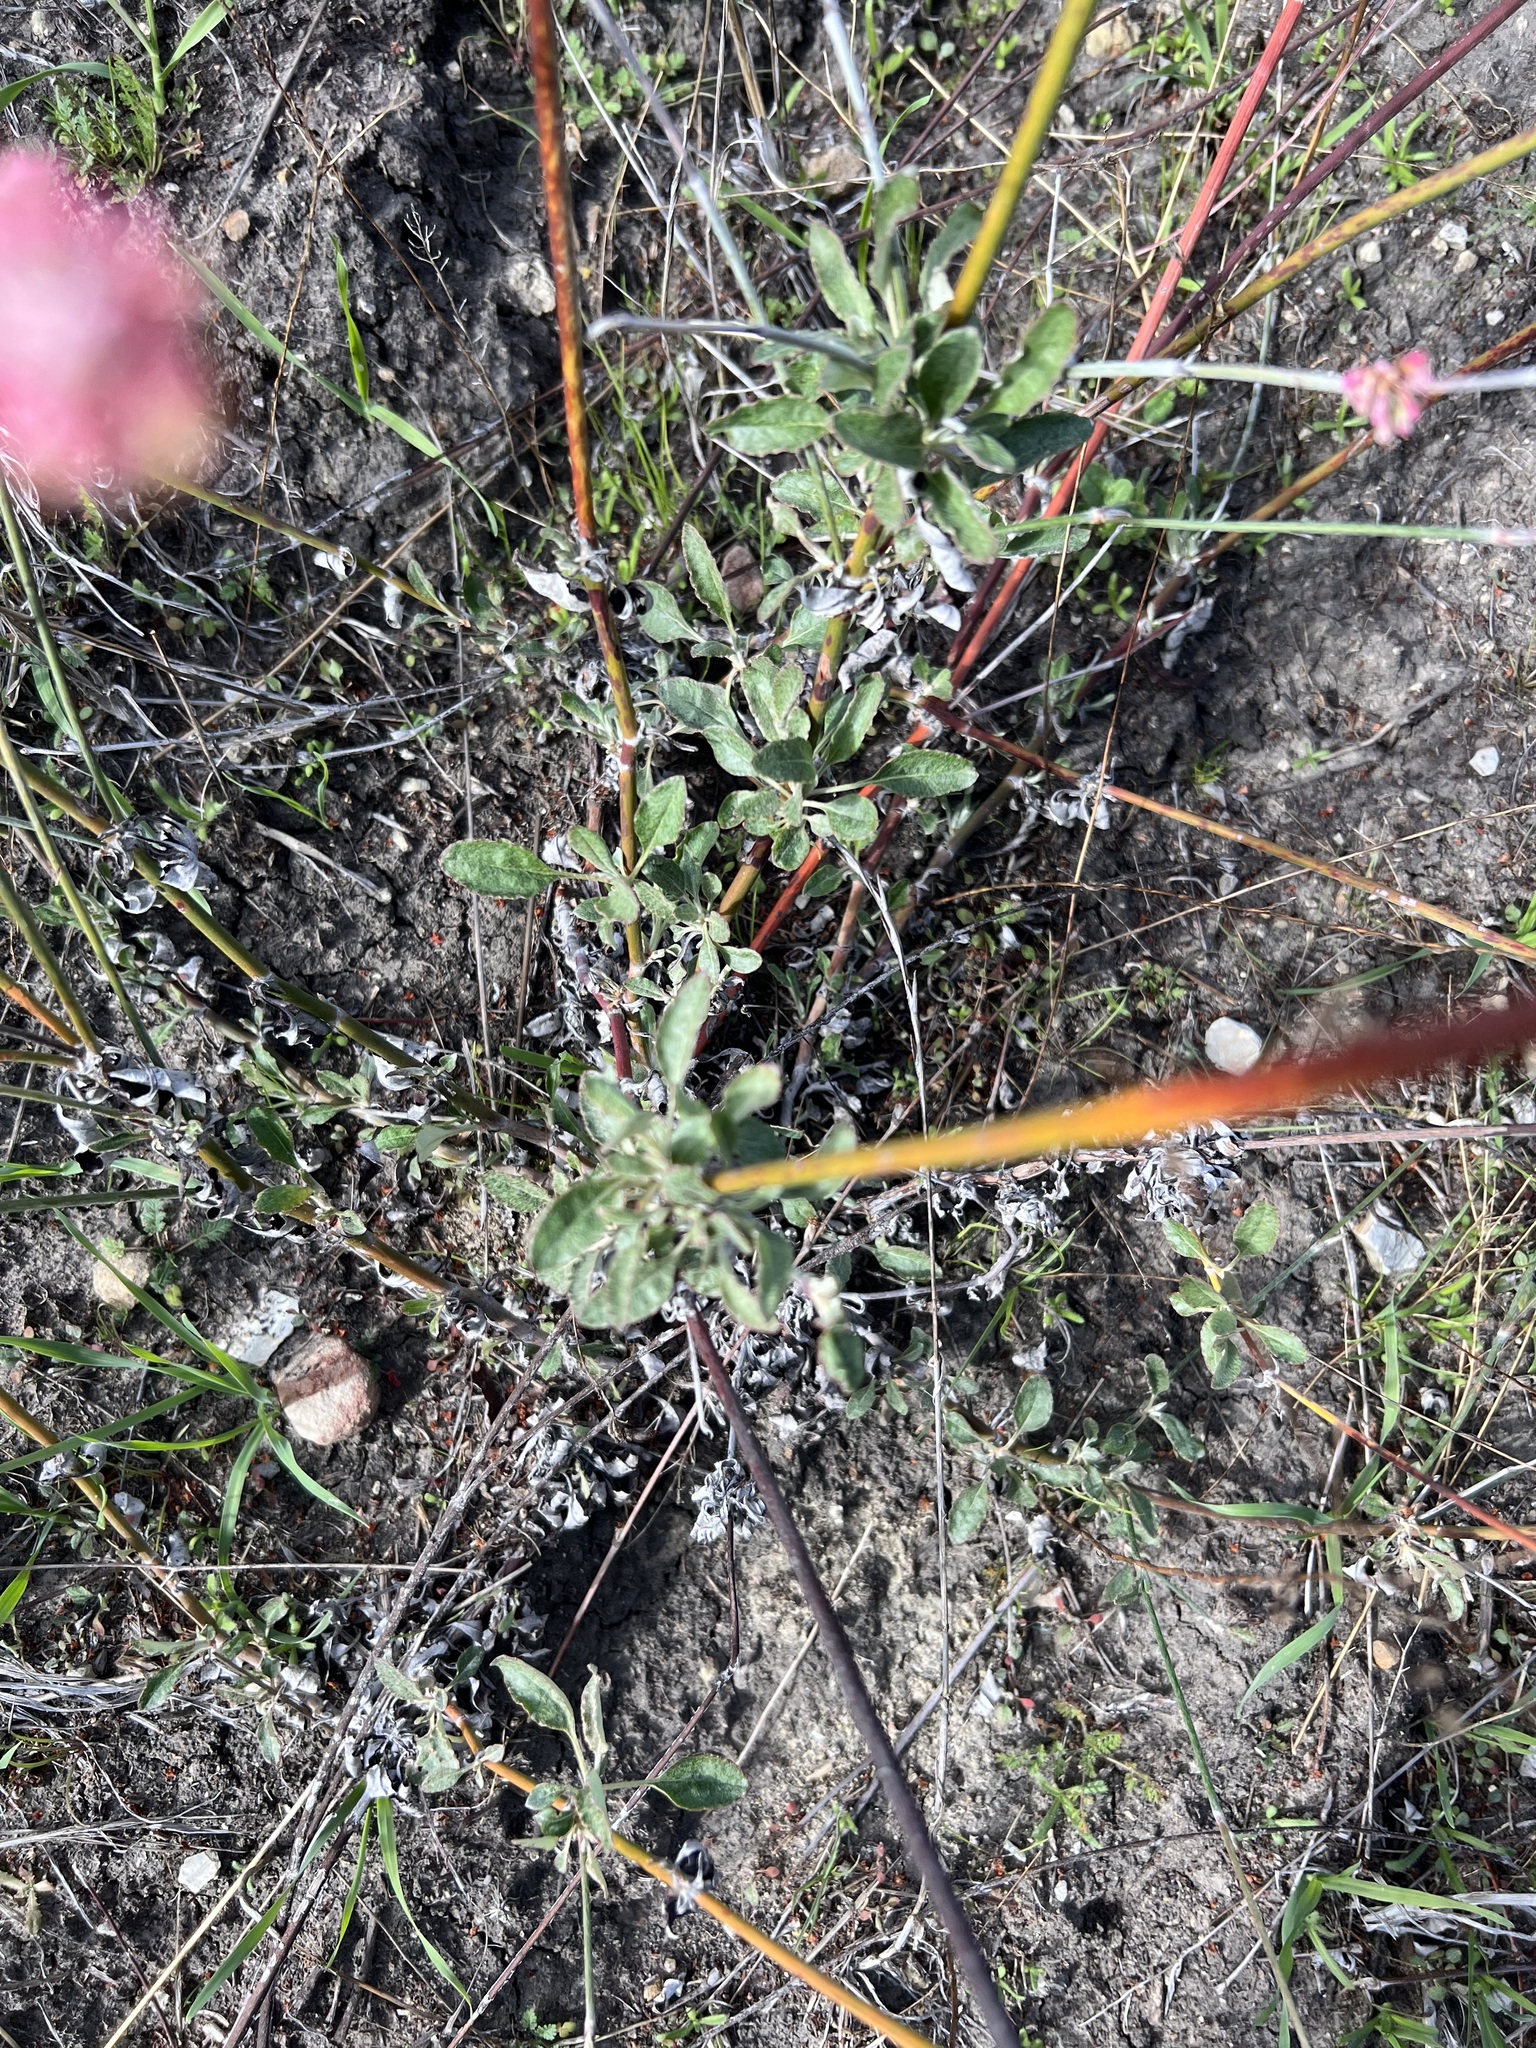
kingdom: Plantae
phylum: Tracheophyta
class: Magnoliopsida
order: Caryophyllales
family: Polygonaceae
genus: Eriogonum
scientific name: Eriogonum elongatum
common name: Long-stem wild buckwheat
